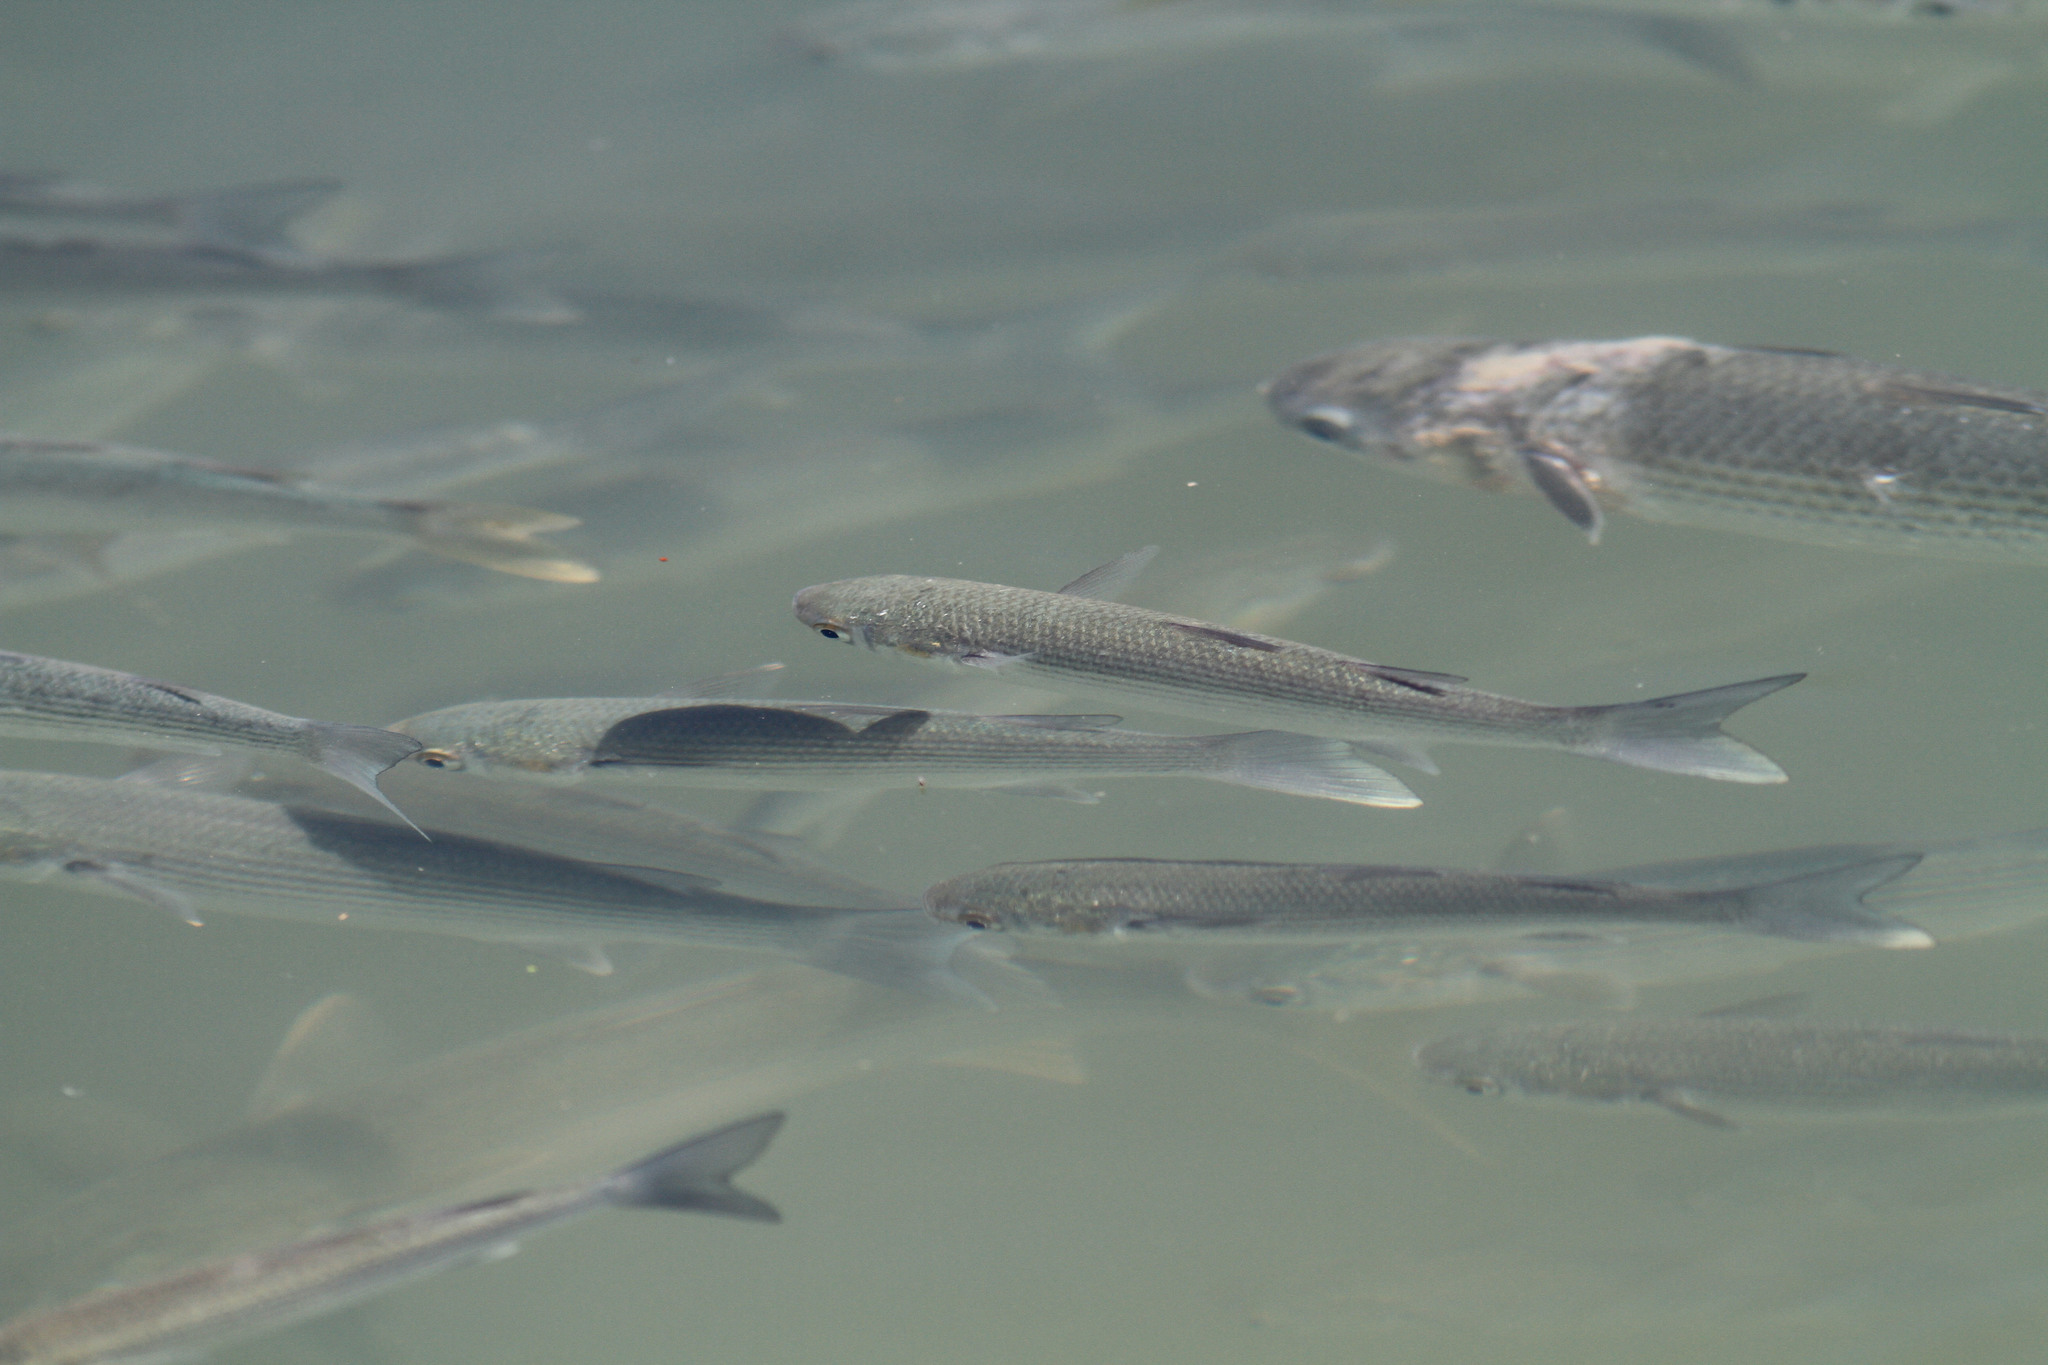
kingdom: Animalia
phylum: Chordata
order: Mugiliformes
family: Mugilidae
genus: Chelon
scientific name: Chelon ramada
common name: Thinlip grey mullet
